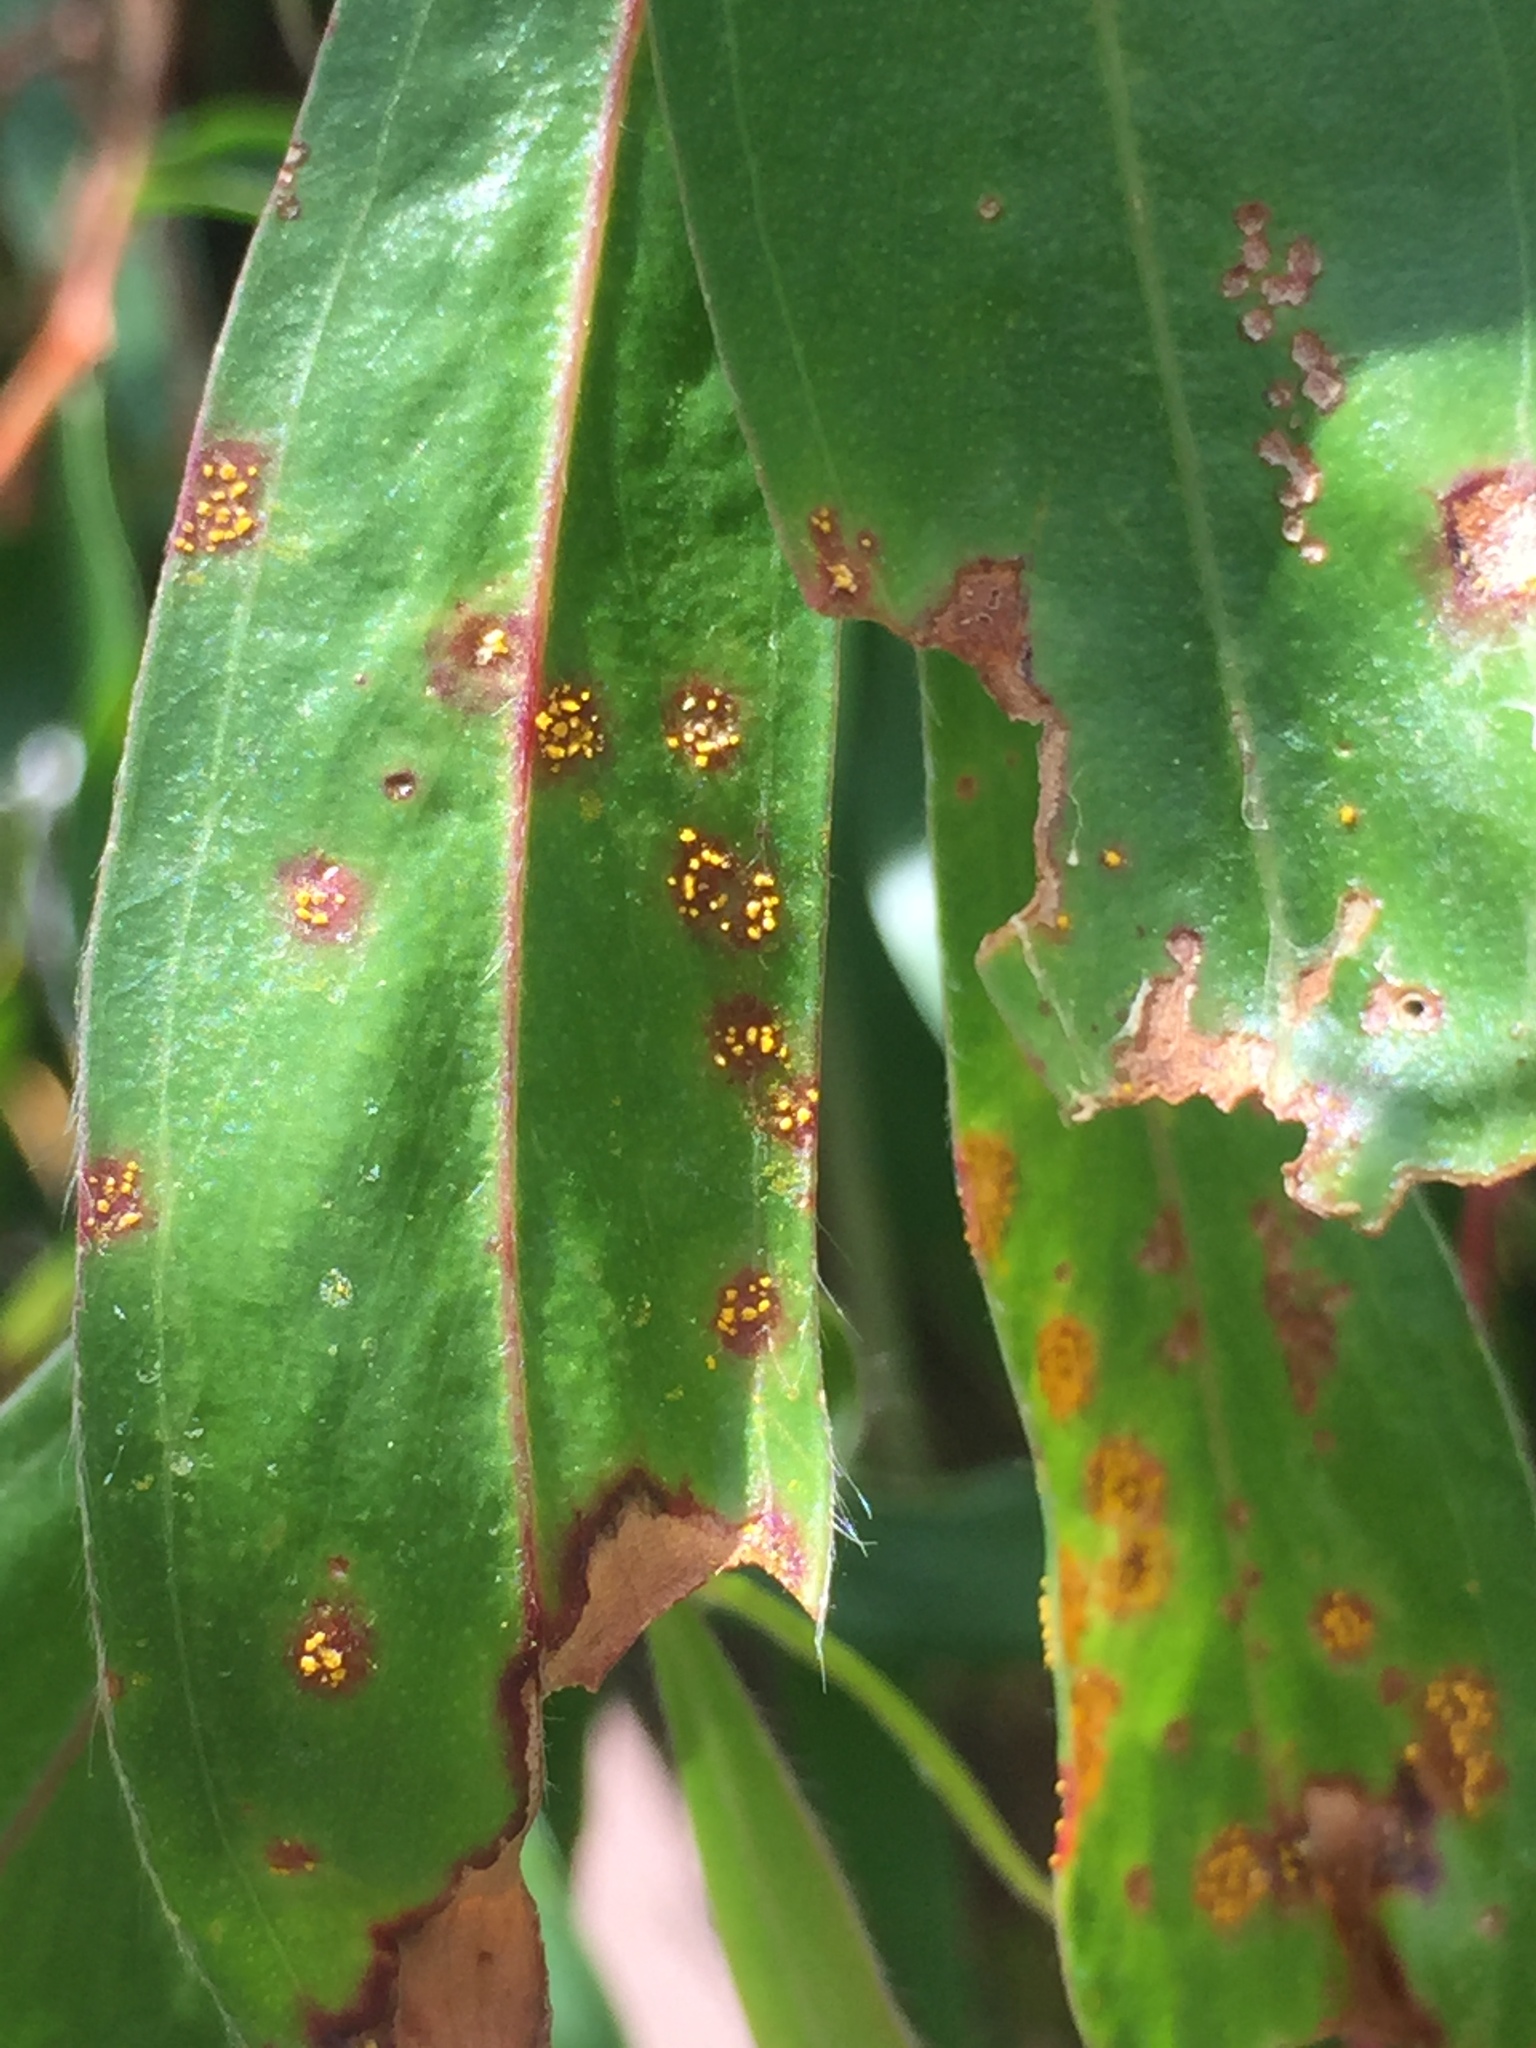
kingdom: Fungi
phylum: Basidiomycota
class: Pucciniomycetes
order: Pucciniales
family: Sphaerophragmiaceae
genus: Austropuccinia
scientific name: Austropuccinia psidii
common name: Myrtle rust
